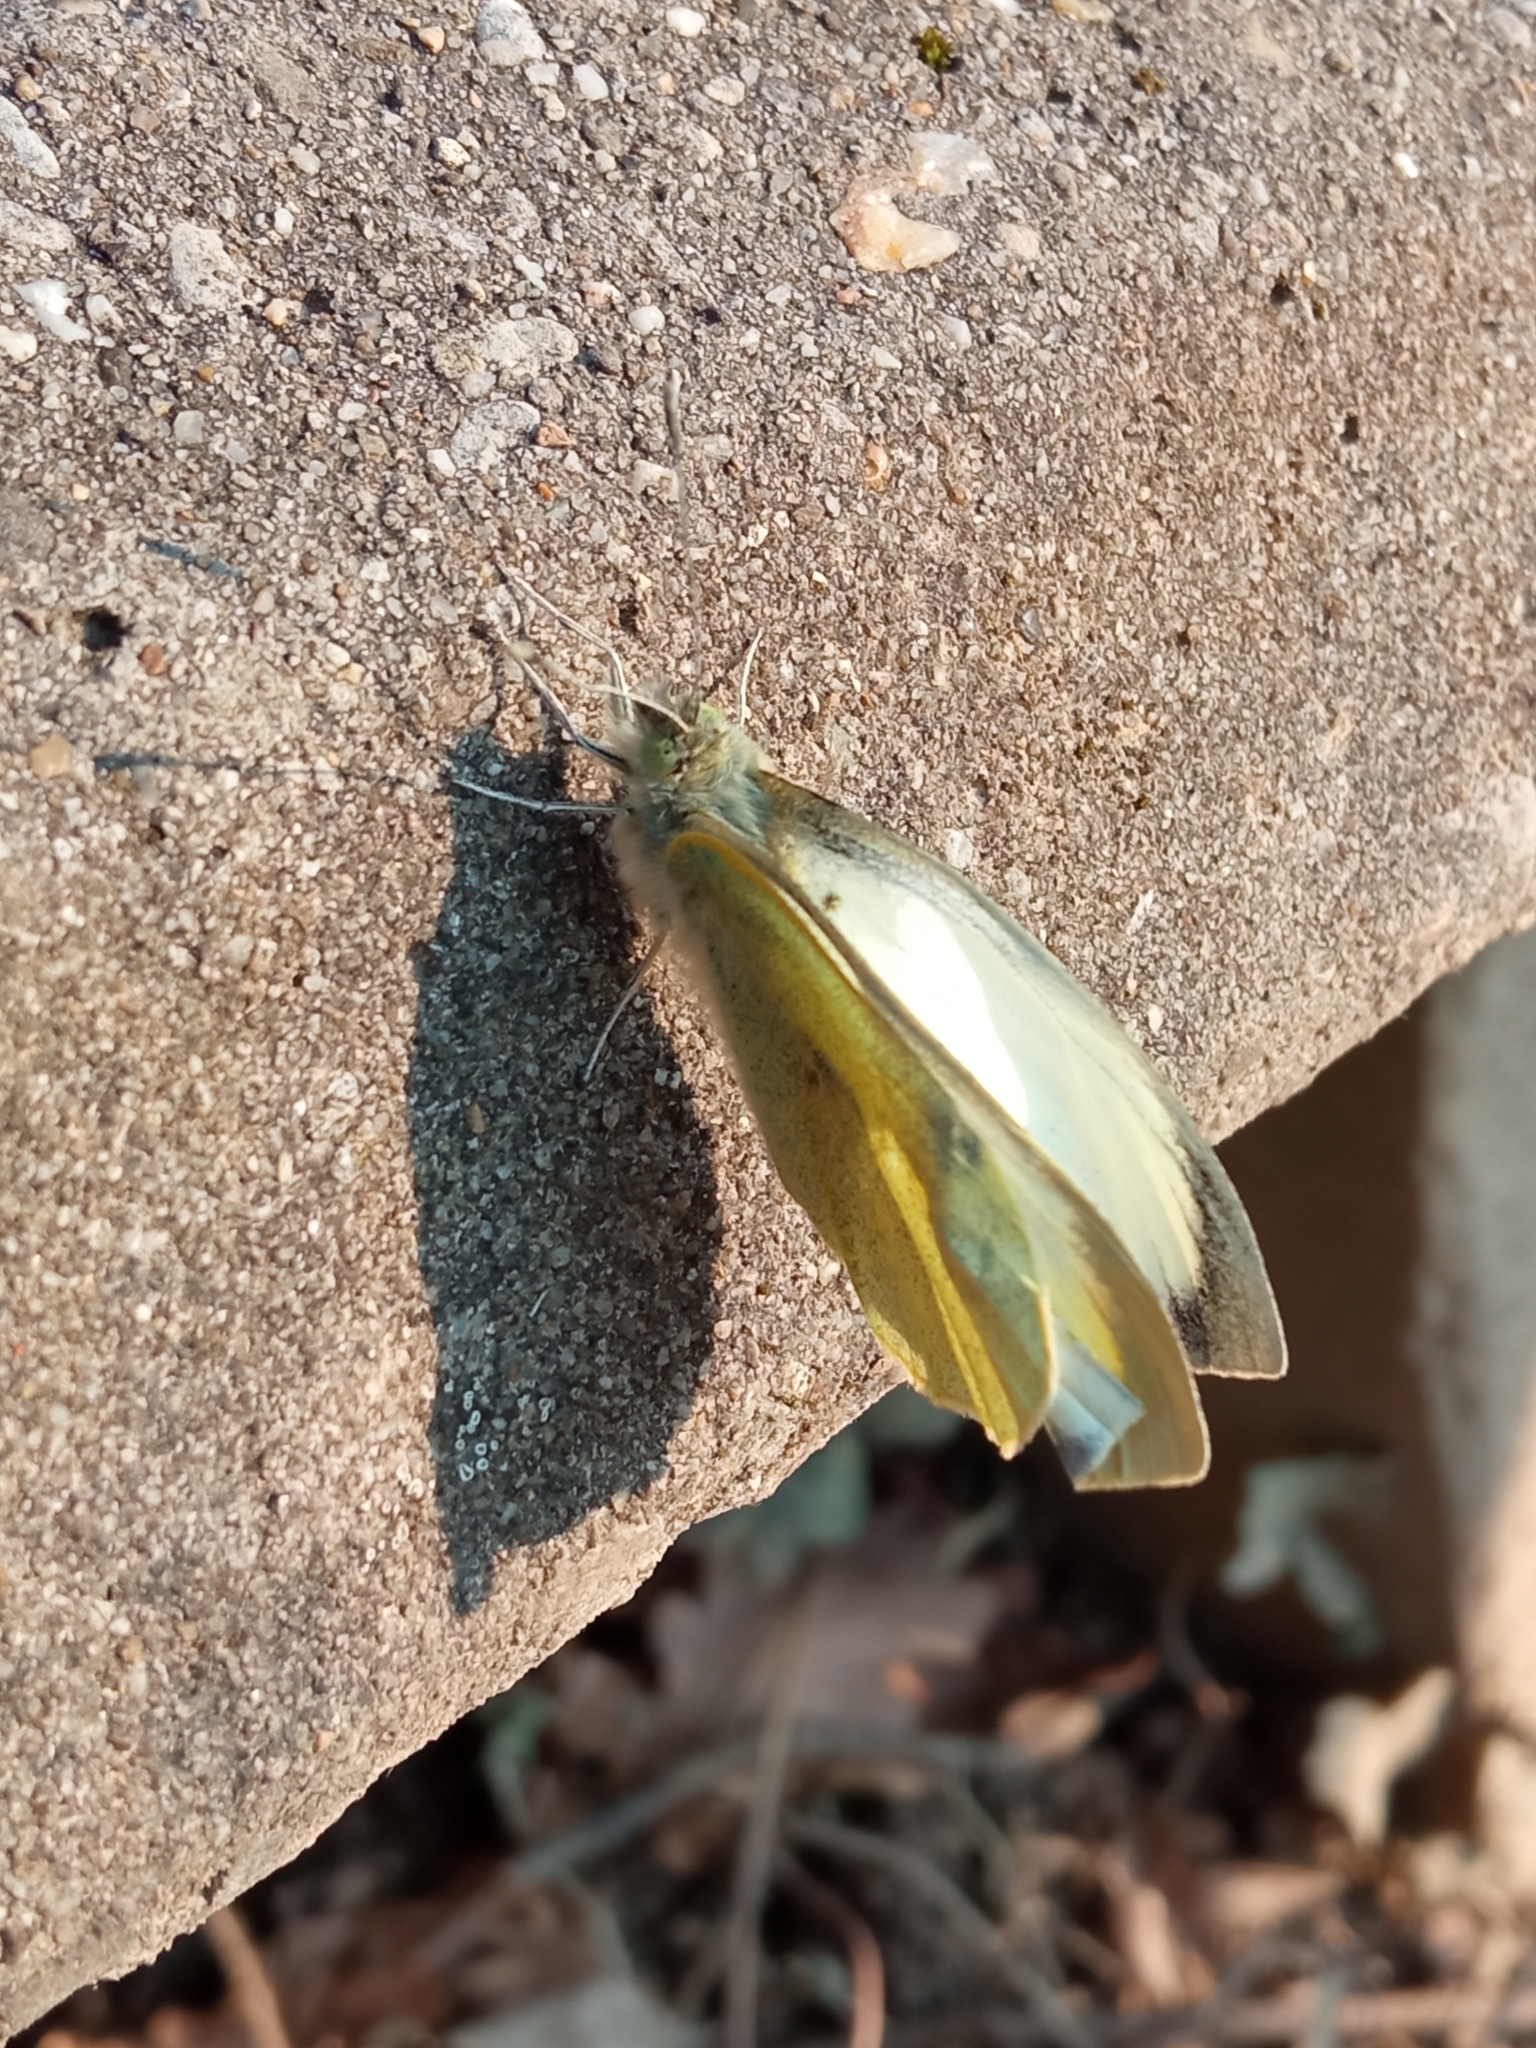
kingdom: Animalia
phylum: Arthropoda
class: Insecta
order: Lepidoptera
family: Pieridae
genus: Pieris
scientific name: Pieris brassicae
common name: Large white
